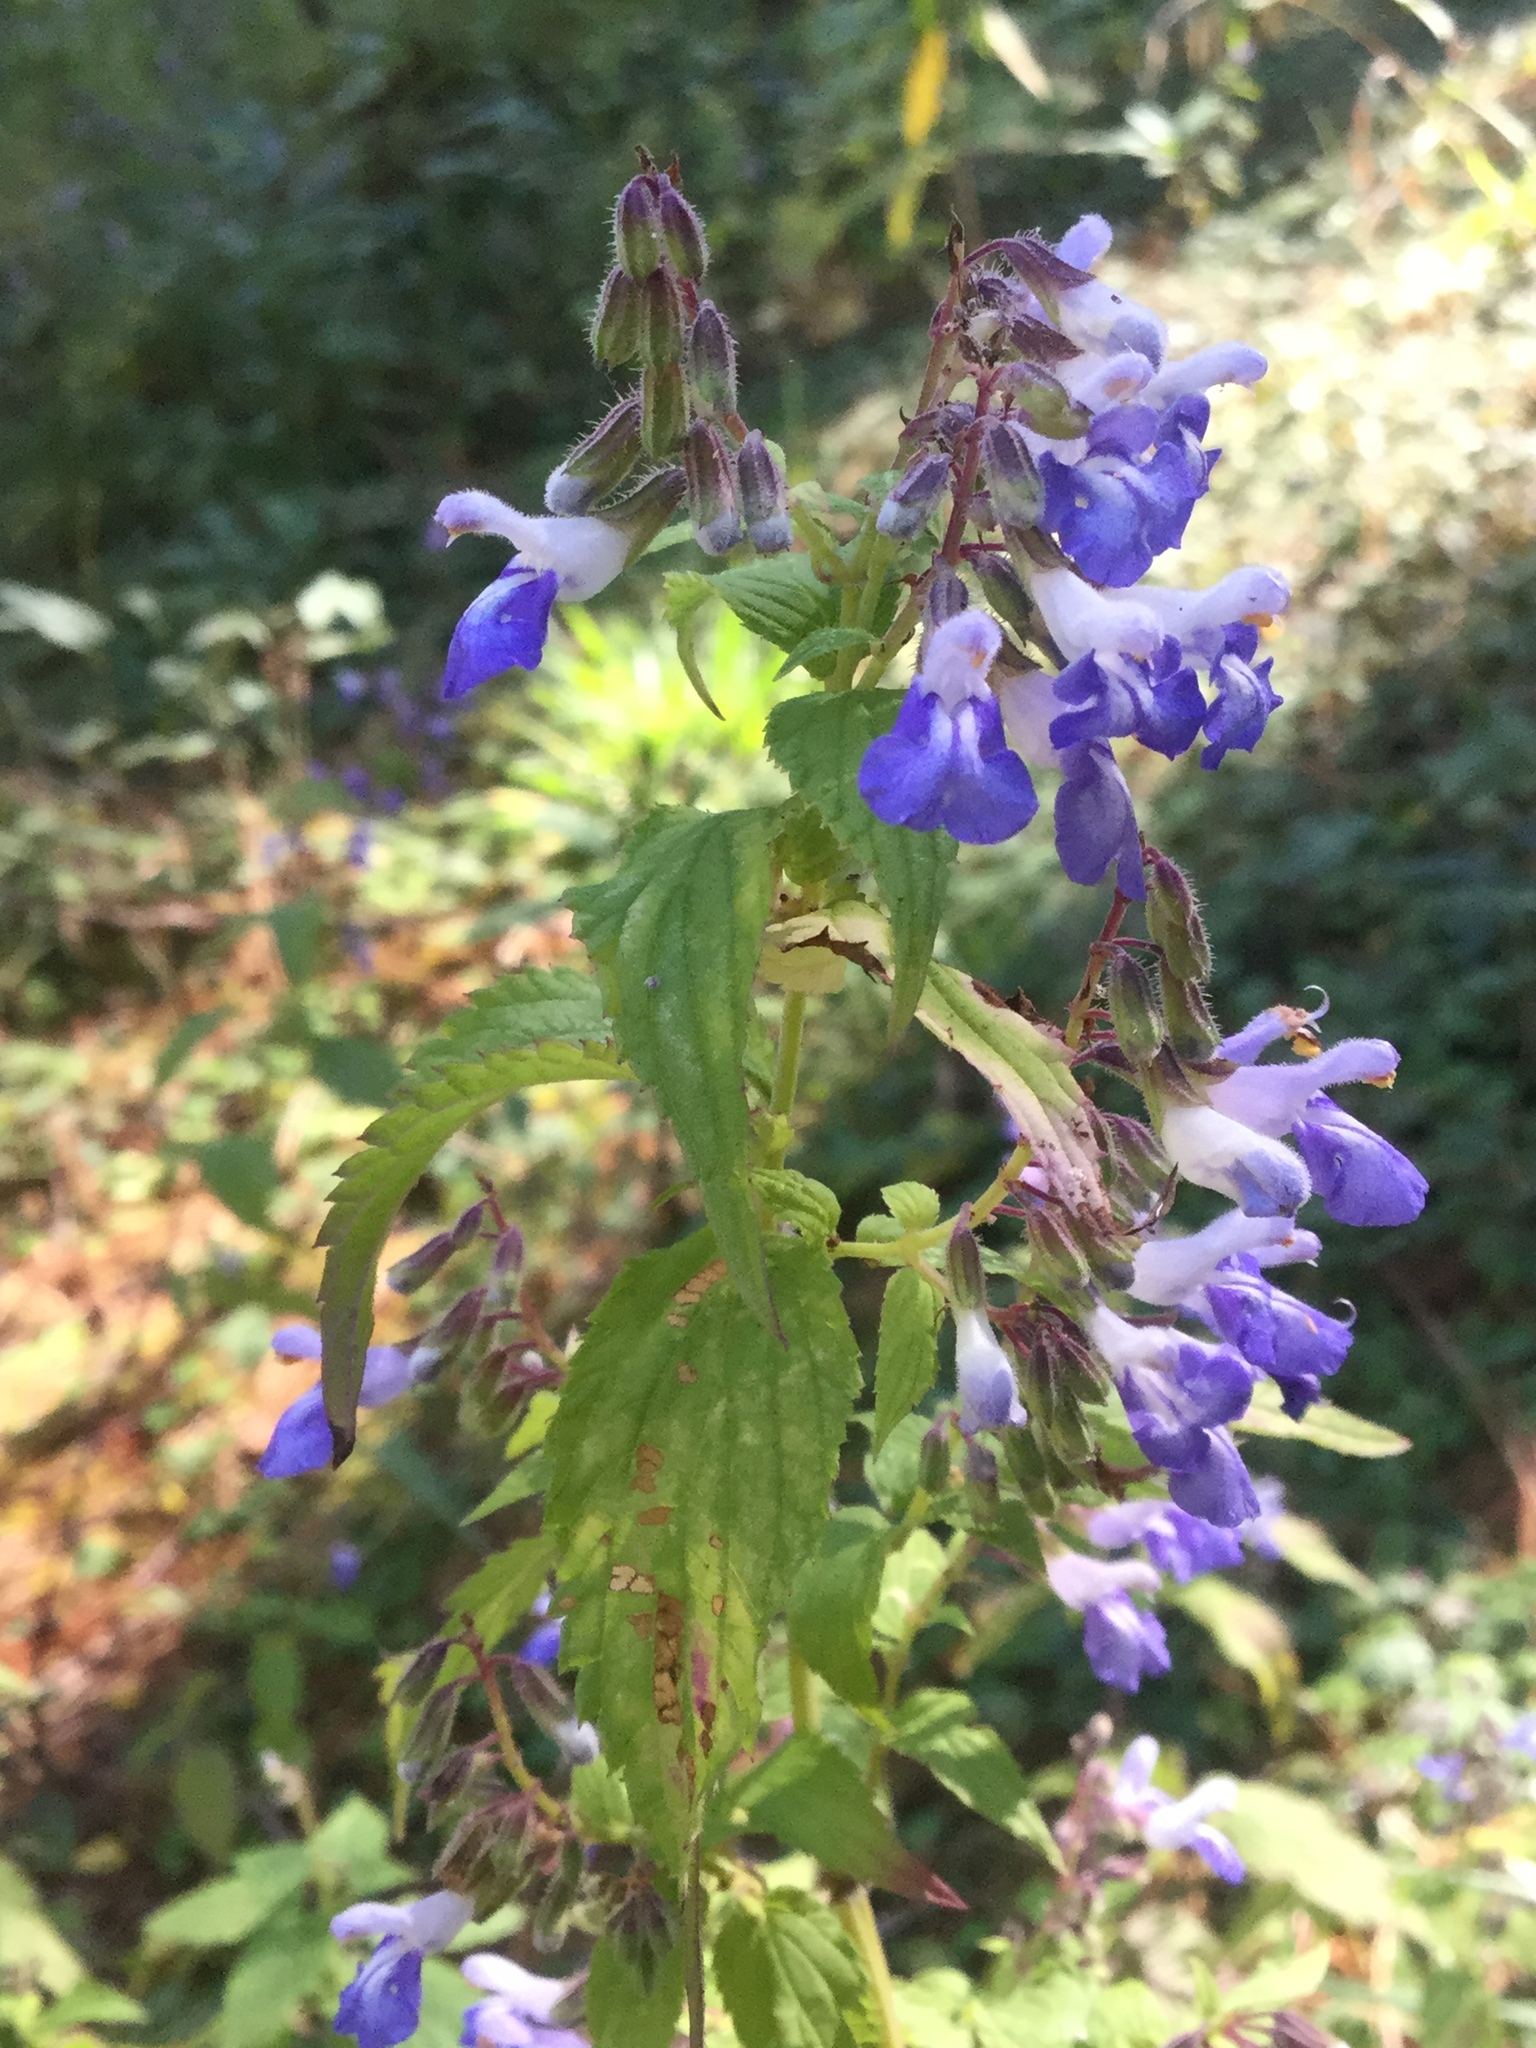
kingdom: Plantae
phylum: Tracheophyta
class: Magnoliopsida
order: Lamiales
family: Lamiaceae
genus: Salvia
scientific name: Salvia plurispicata
